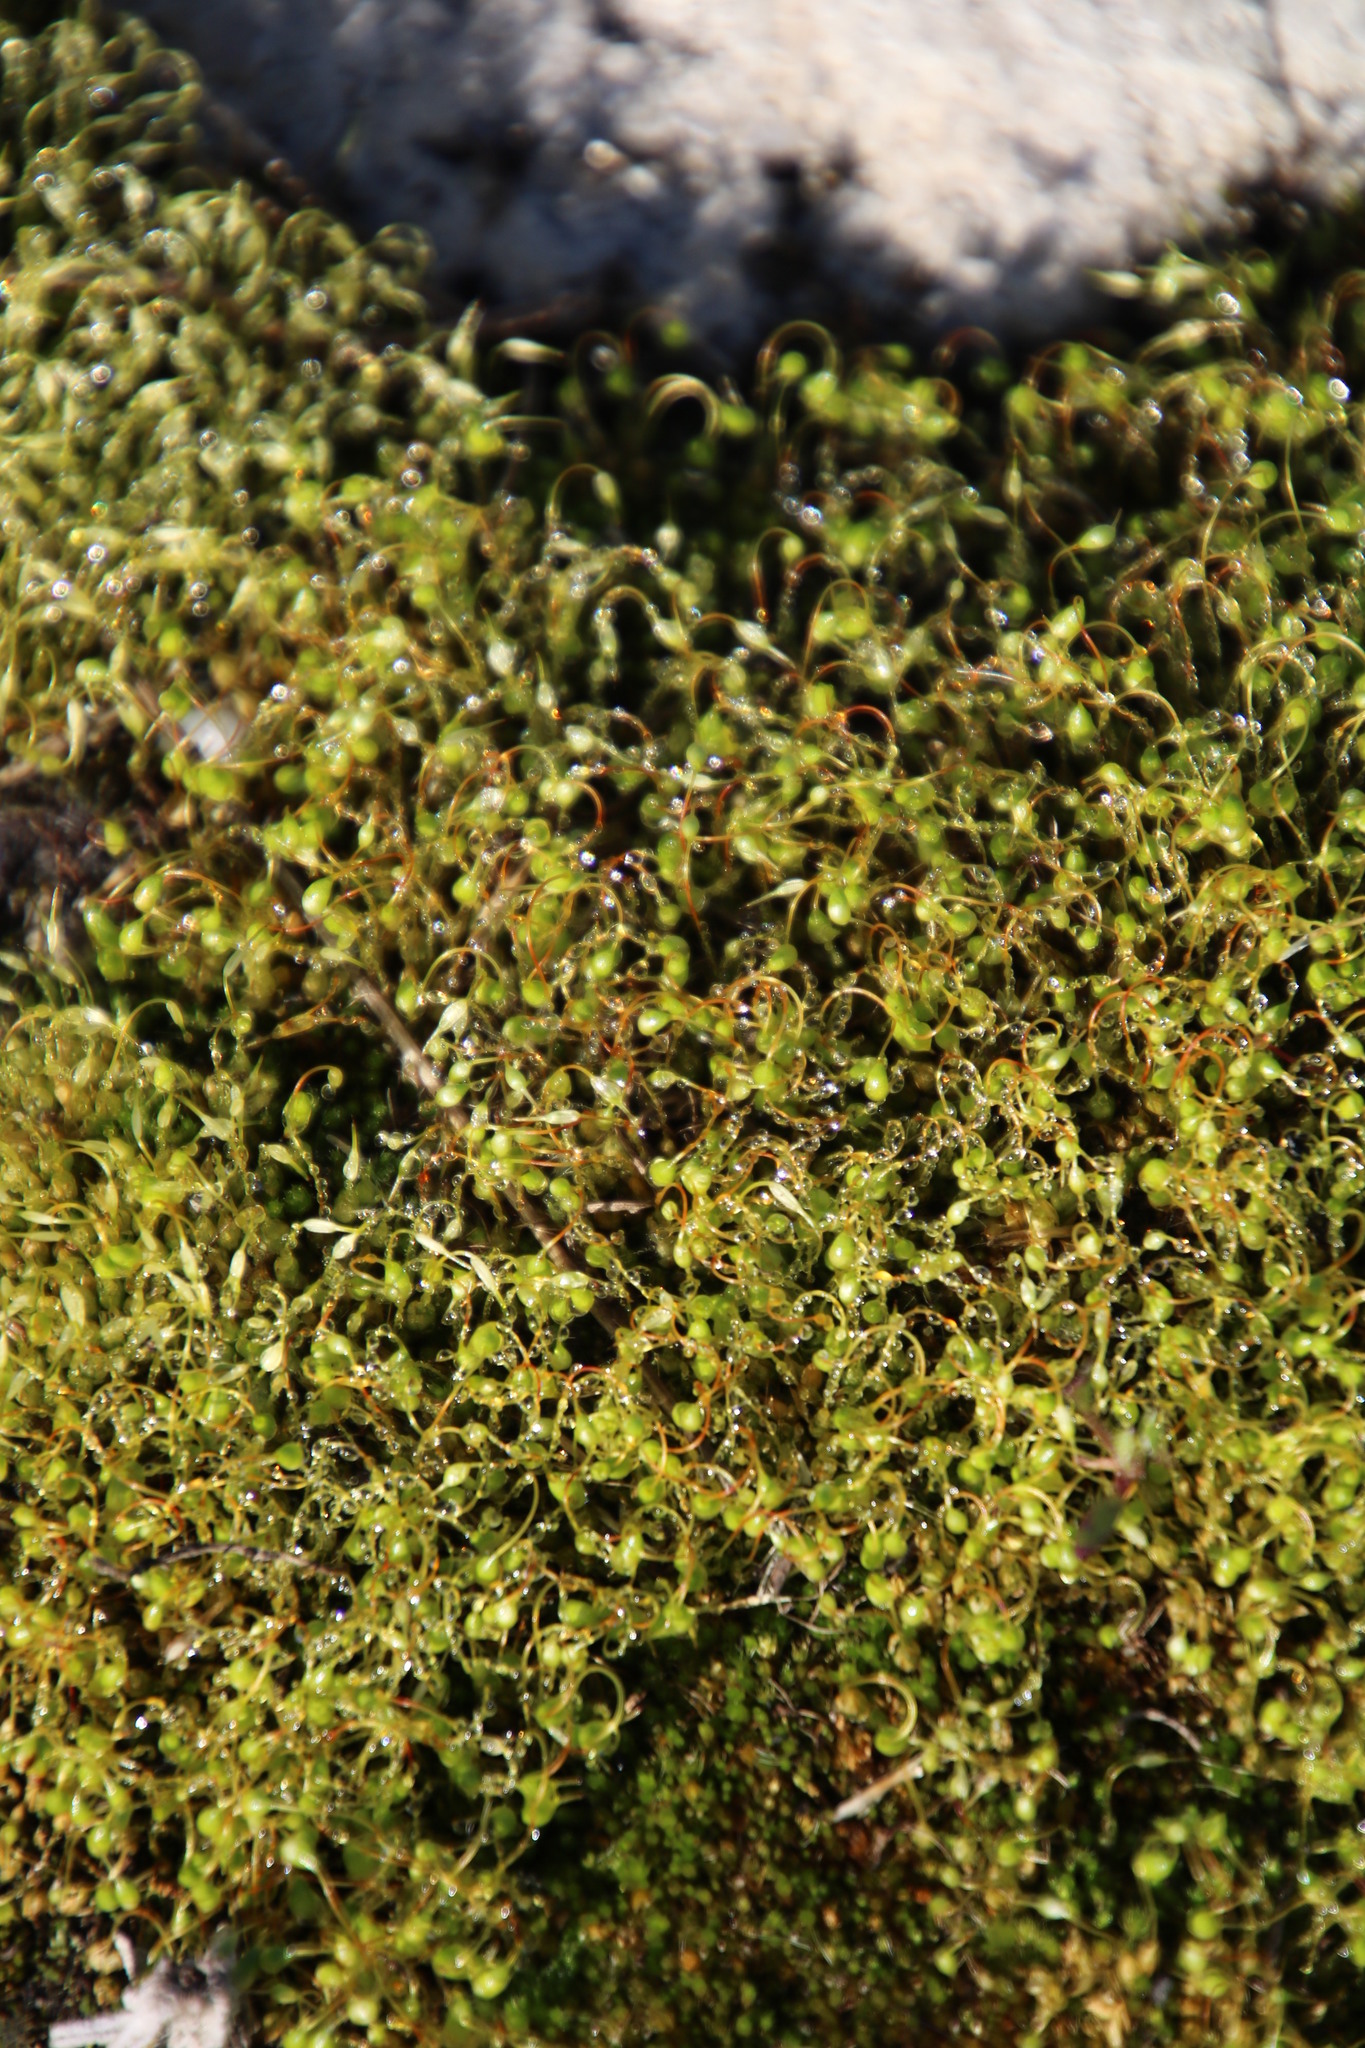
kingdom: Plantae
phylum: Bryophyta
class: Bryopsida
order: Funariales
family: Funariaceae
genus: Funaria
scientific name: Funaria hygrometrica
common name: Common cord moss
